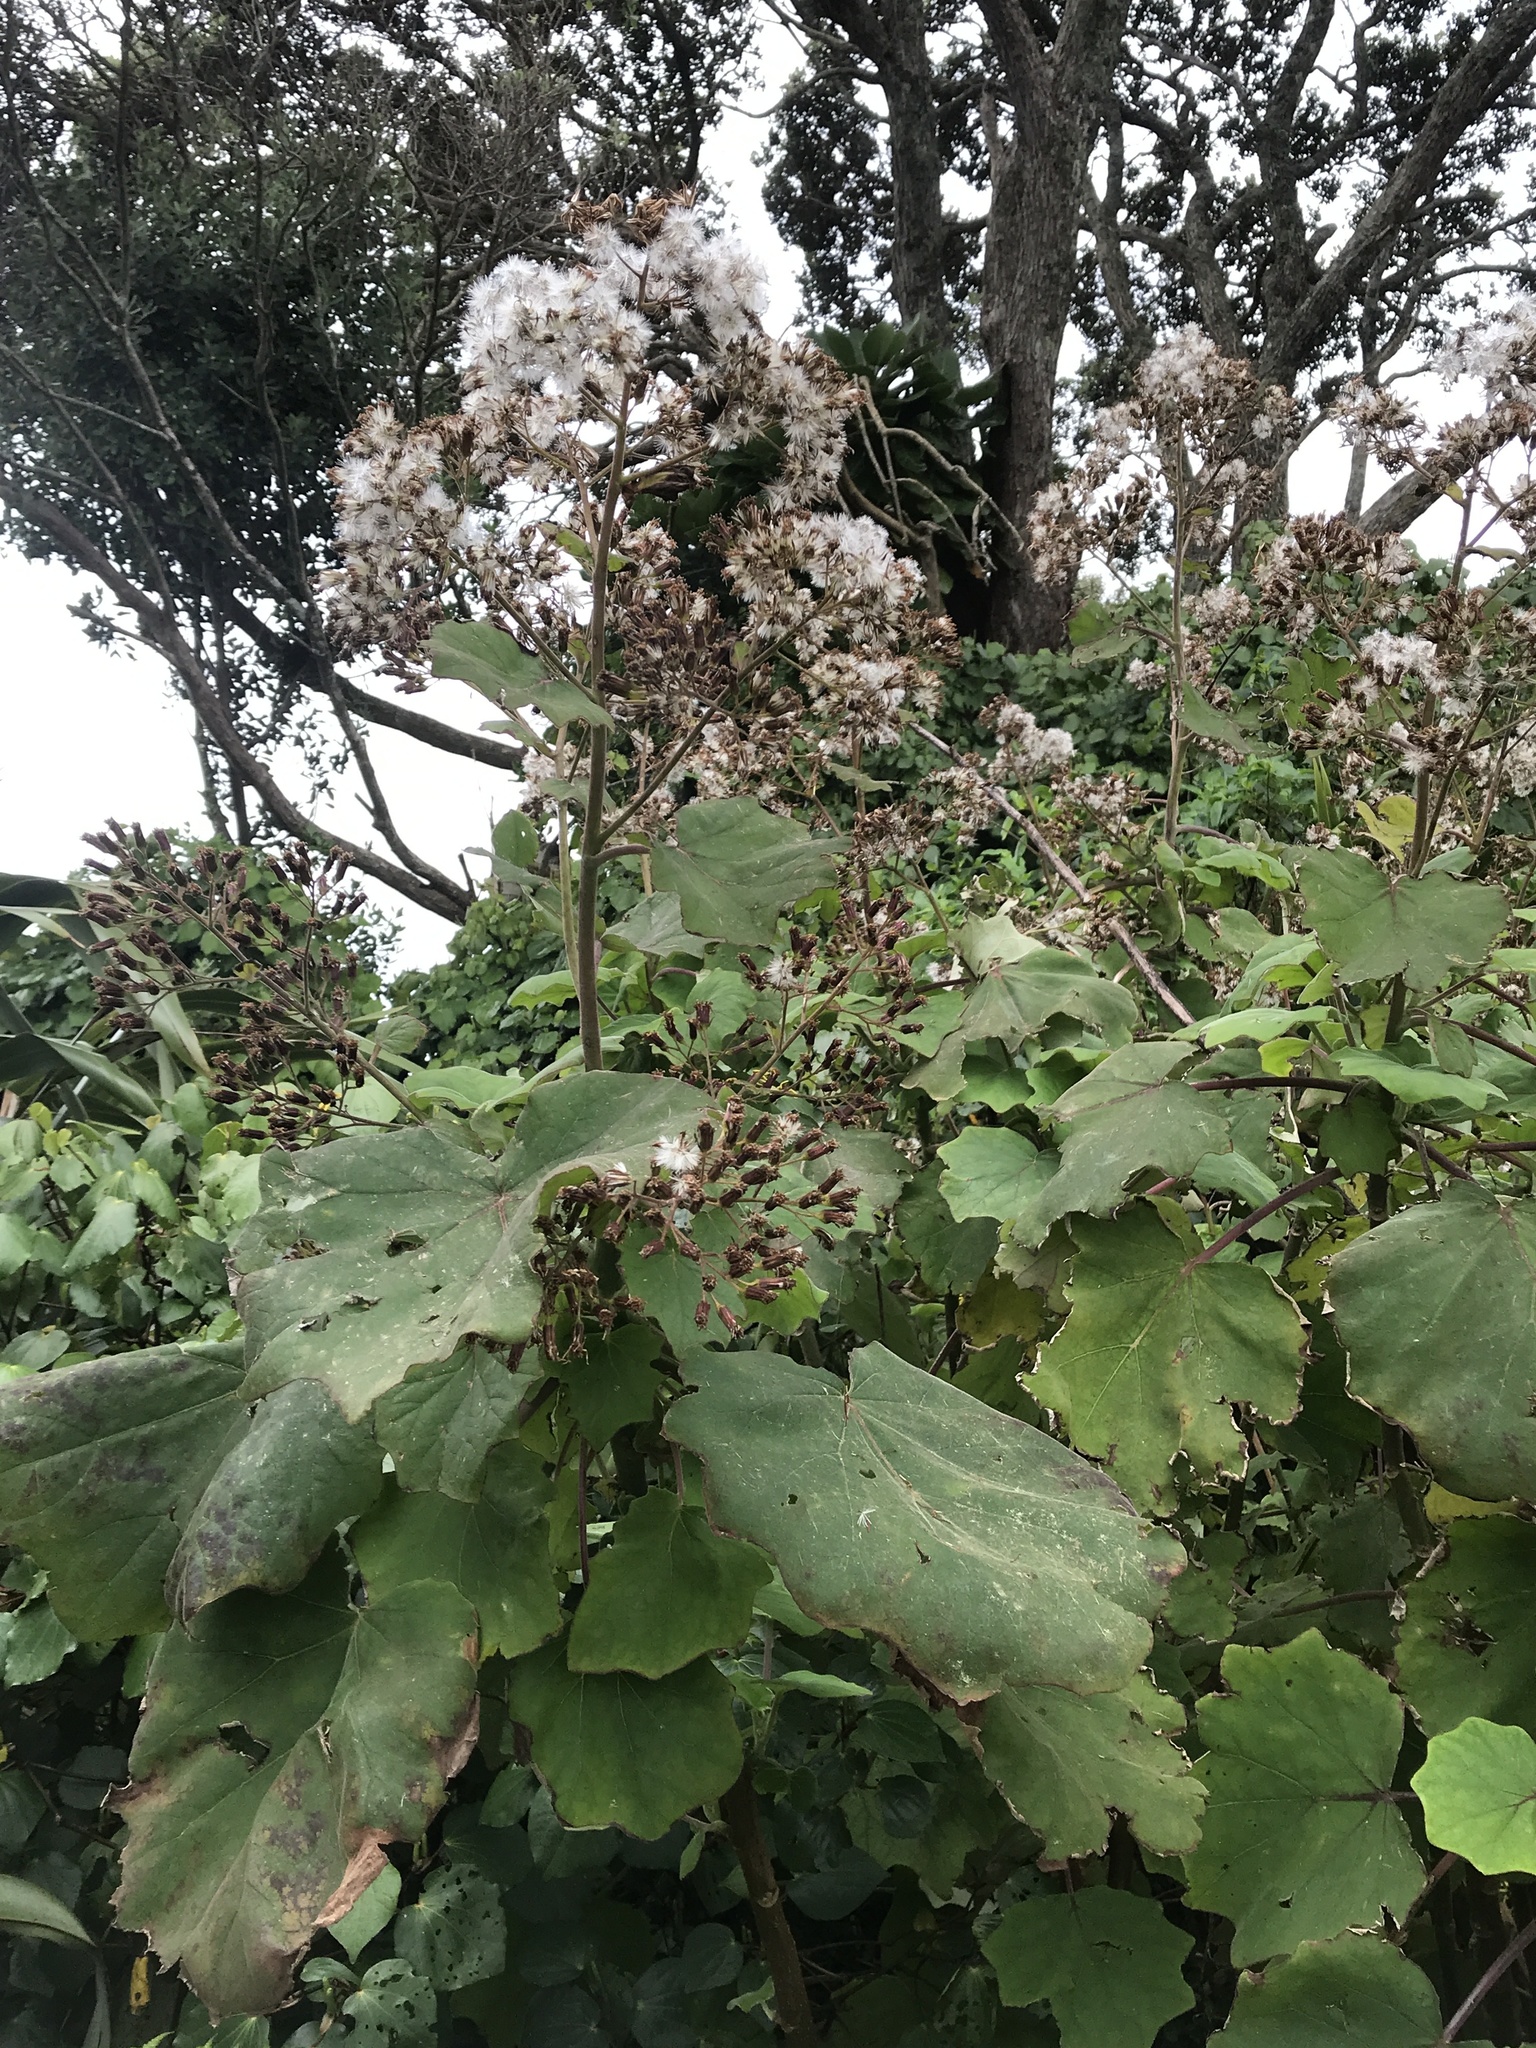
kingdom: Plantae
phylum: Tracheophyta
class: Magnoliopsida
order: Asterales
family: Asteraceae
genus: Roldana
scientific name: Roldana petasitis
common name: California-geranium
